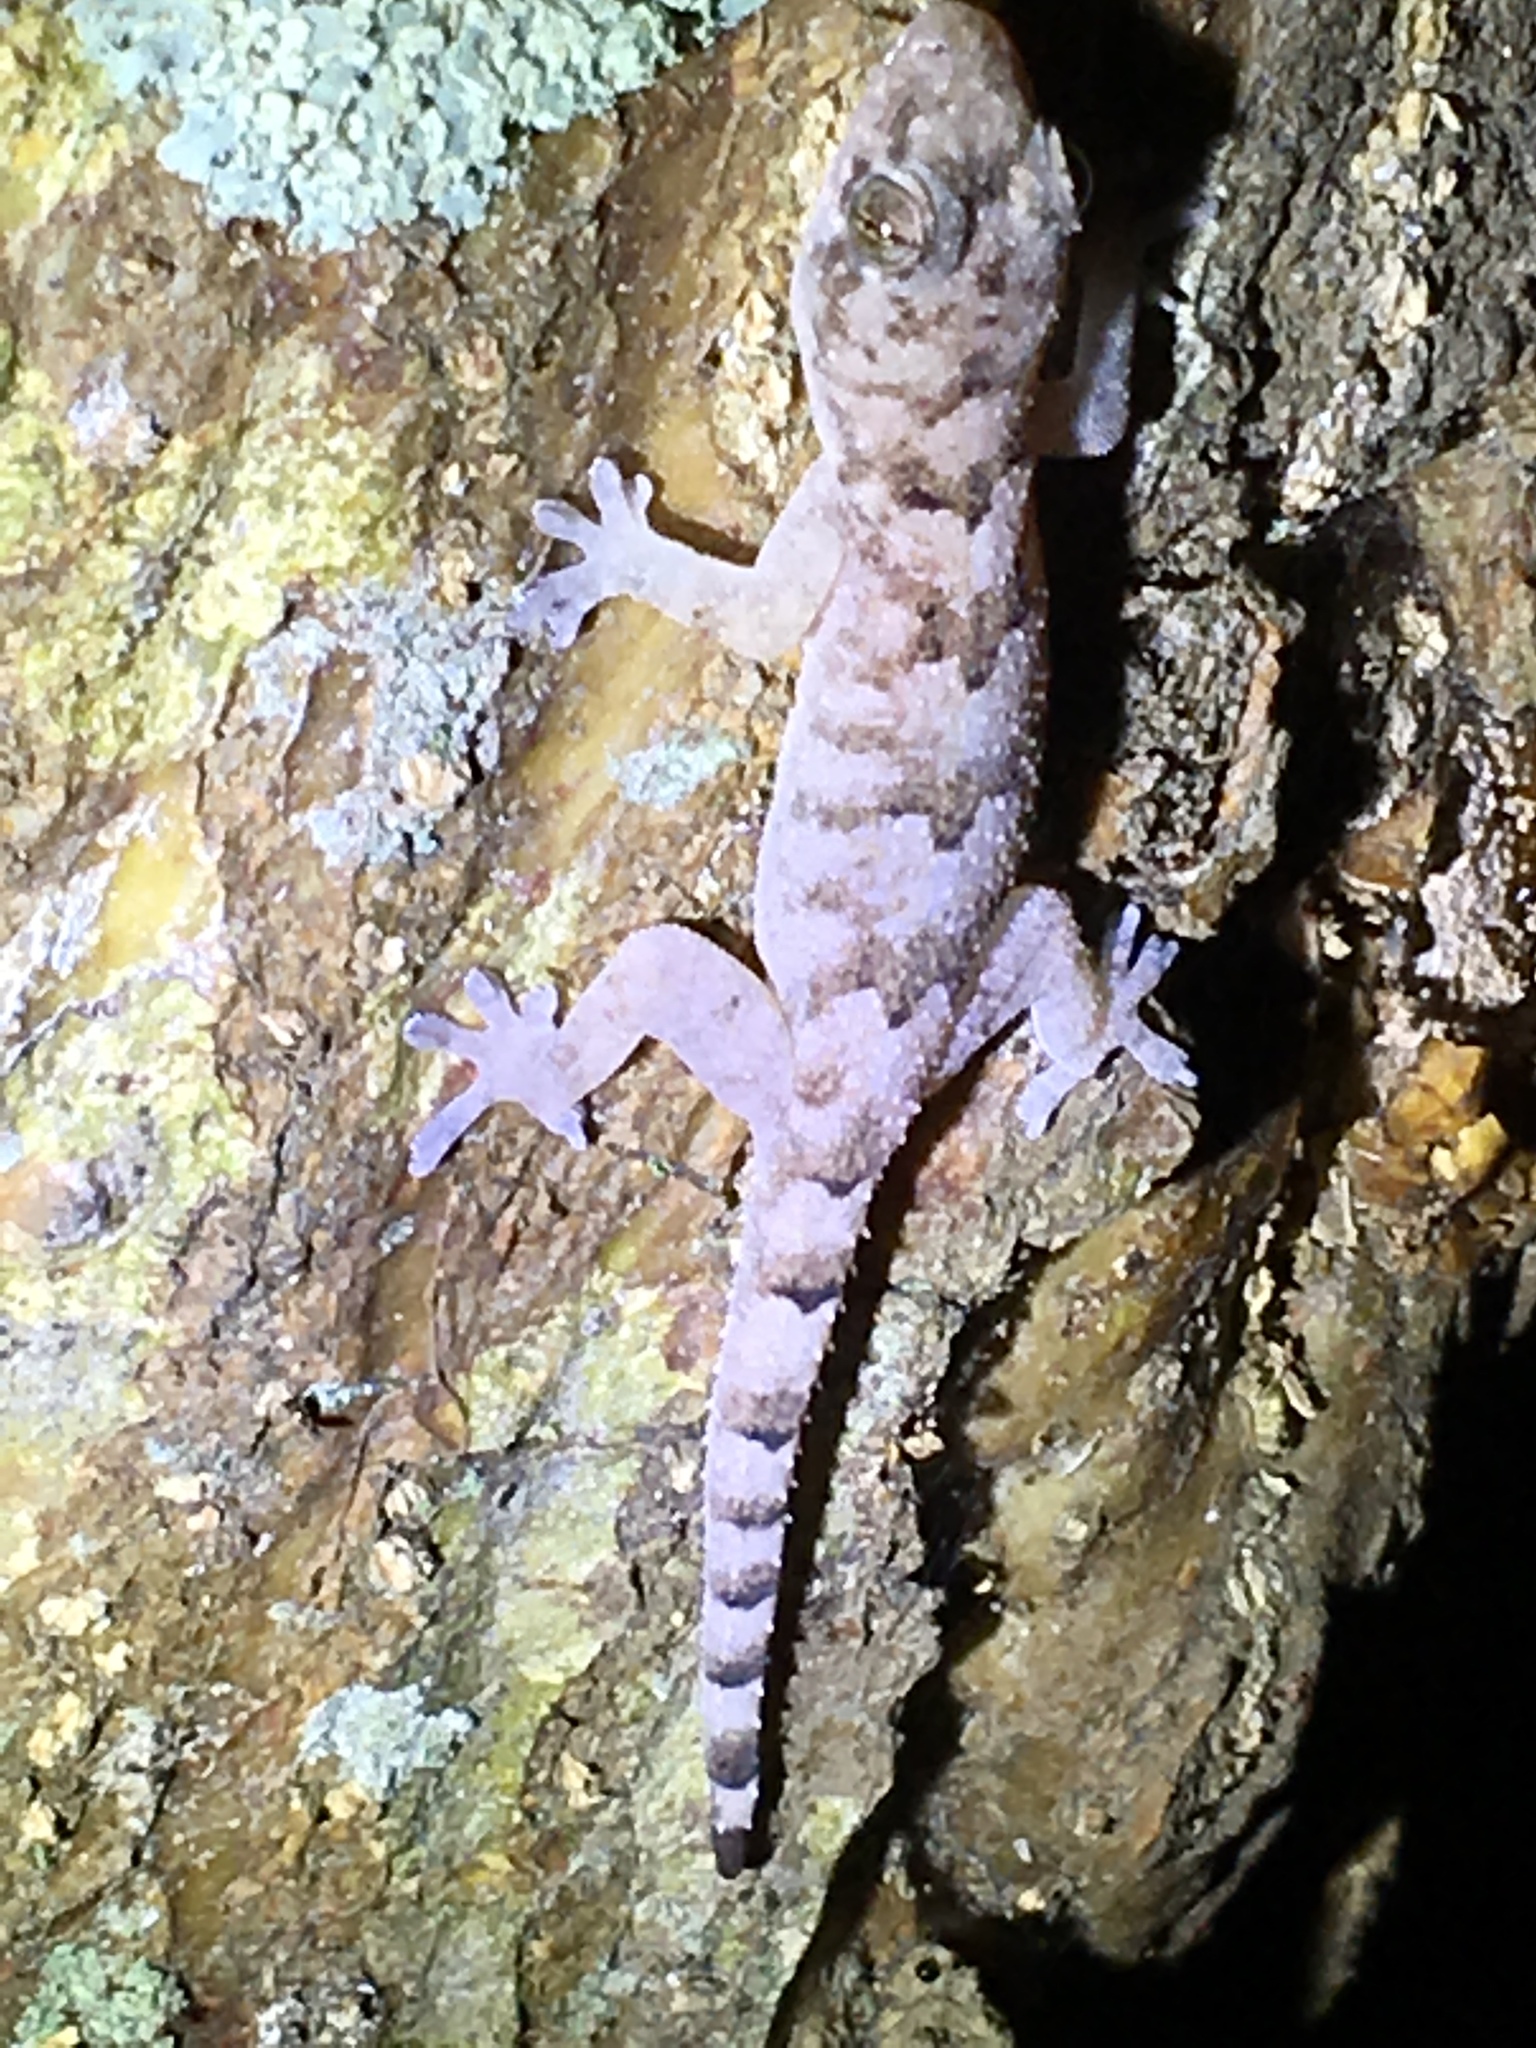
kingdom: Animalia
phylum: Chordata
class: Squamata
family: Gekkonidae
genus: Hemidactylus
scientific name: Hemidactylus mabouia
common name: House gecko
